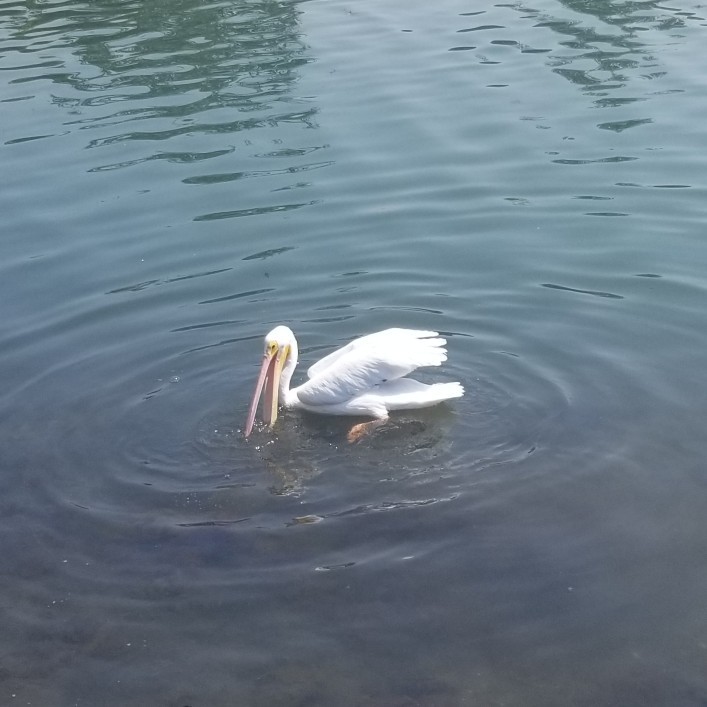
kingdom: Animalia
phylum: Chordata
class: Aves
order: Pelecaniformes
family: Pelecanidae
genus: Pelecanus
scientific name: Pelecanus erythrorhynchos
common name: American white pelican
